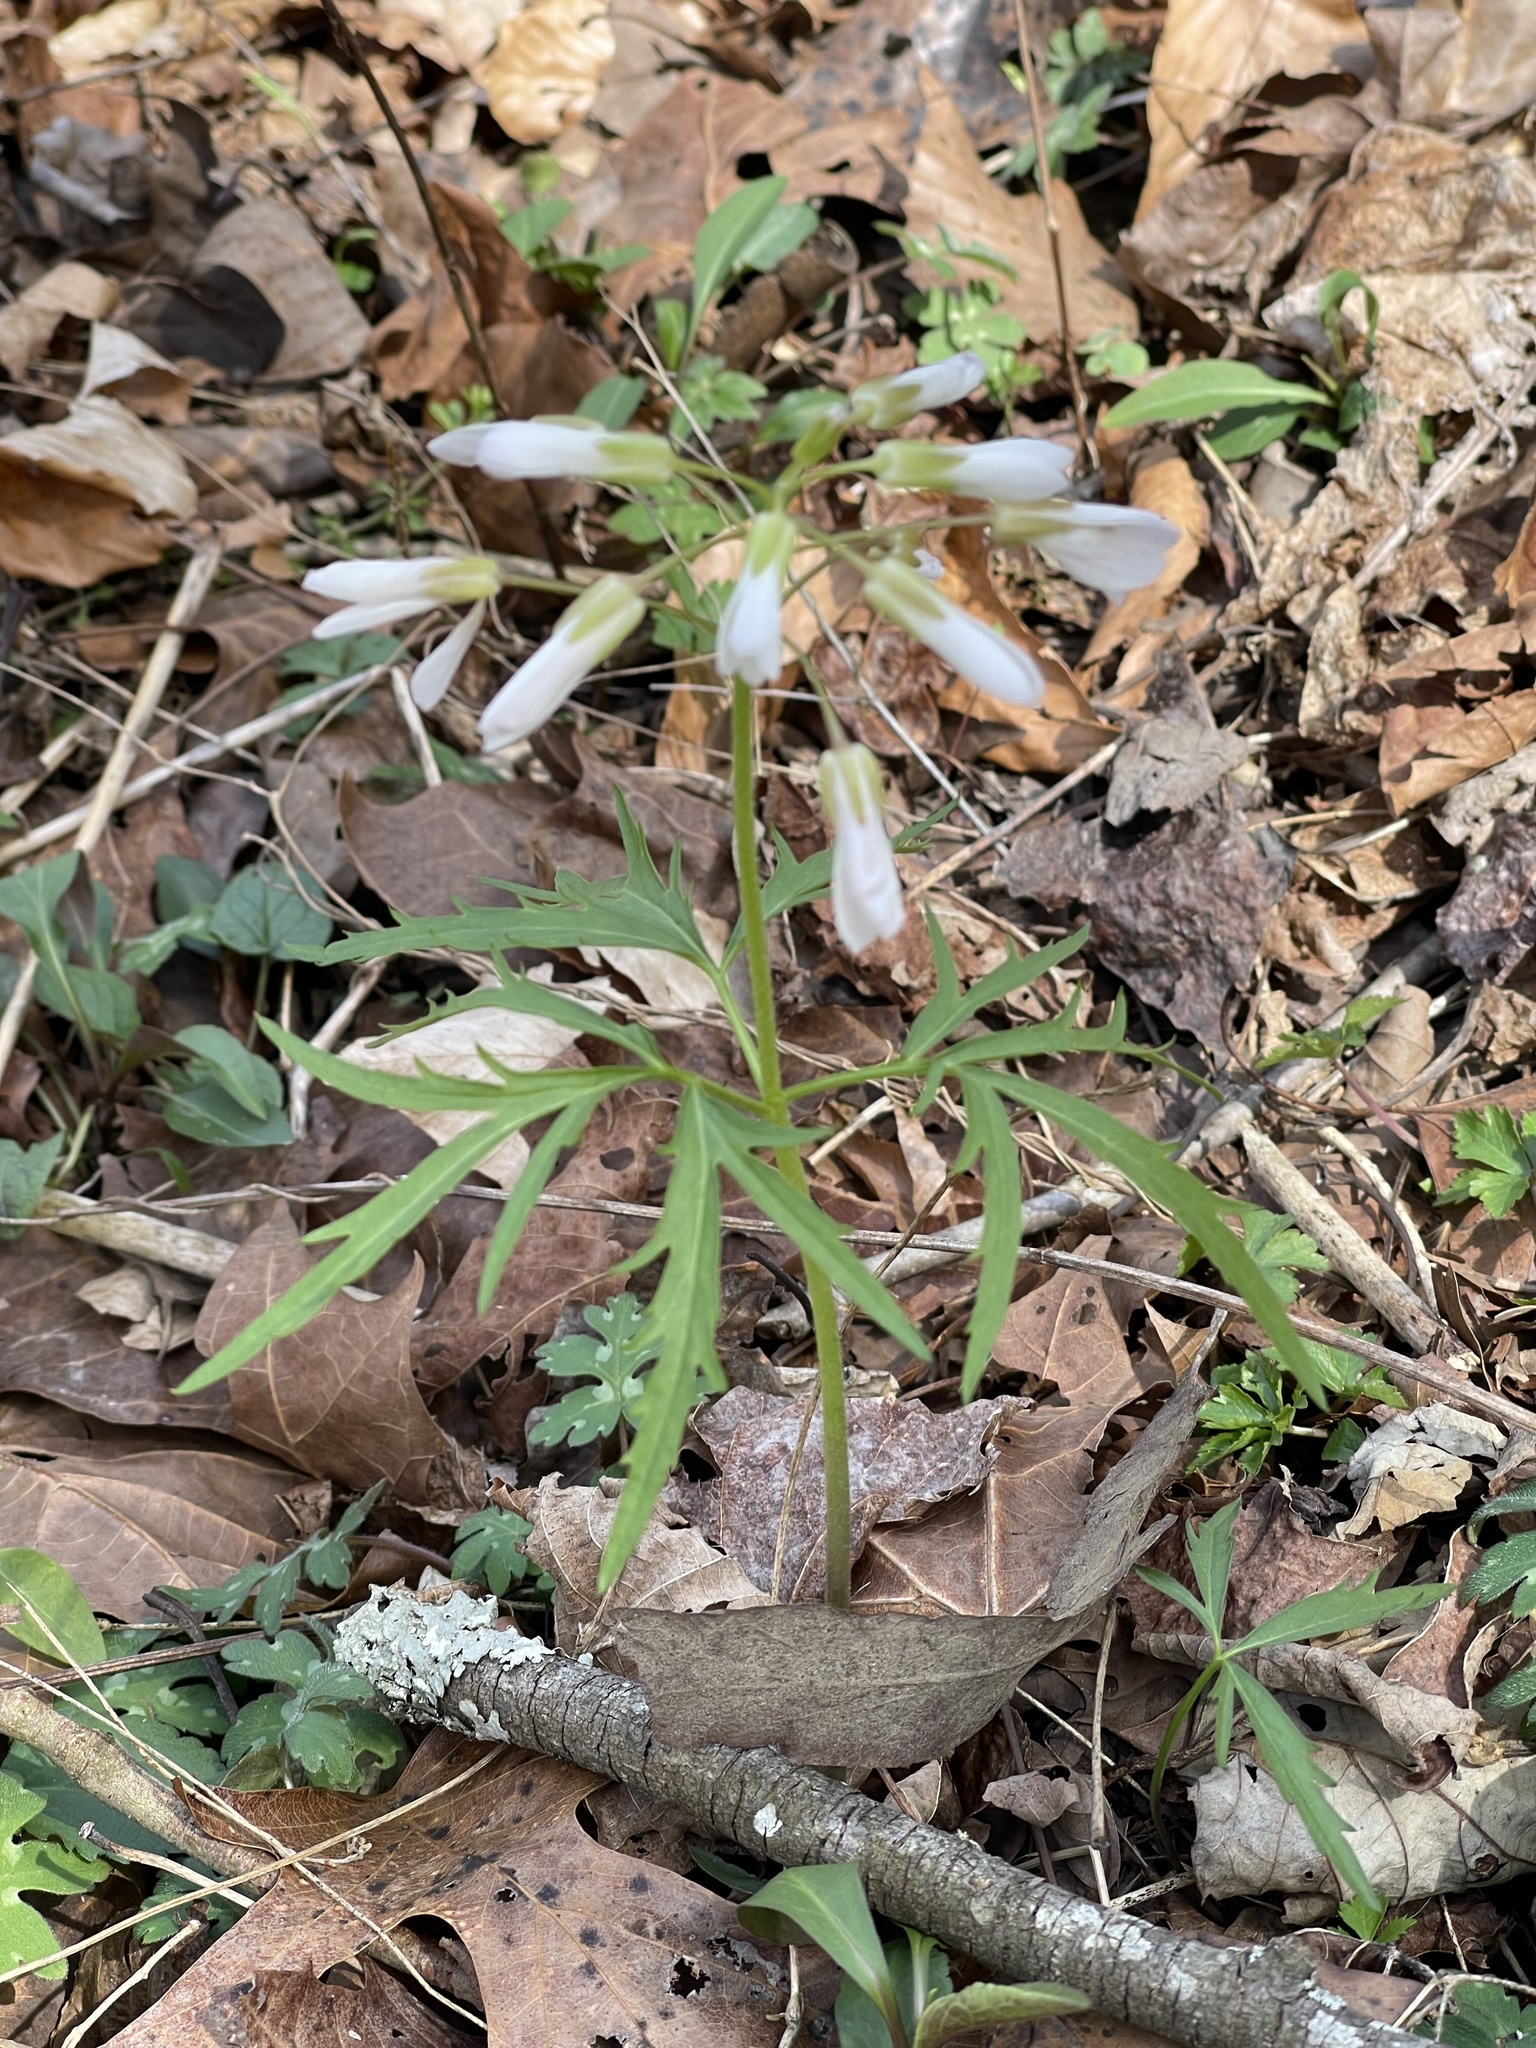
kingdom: Plantae
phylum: Tracheophyta
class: Magnoliopsida
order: Brassicales
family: Brassicaceae
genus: Cardamine
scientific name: Cardamine concatenata
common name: Cut-leaf toothcup
